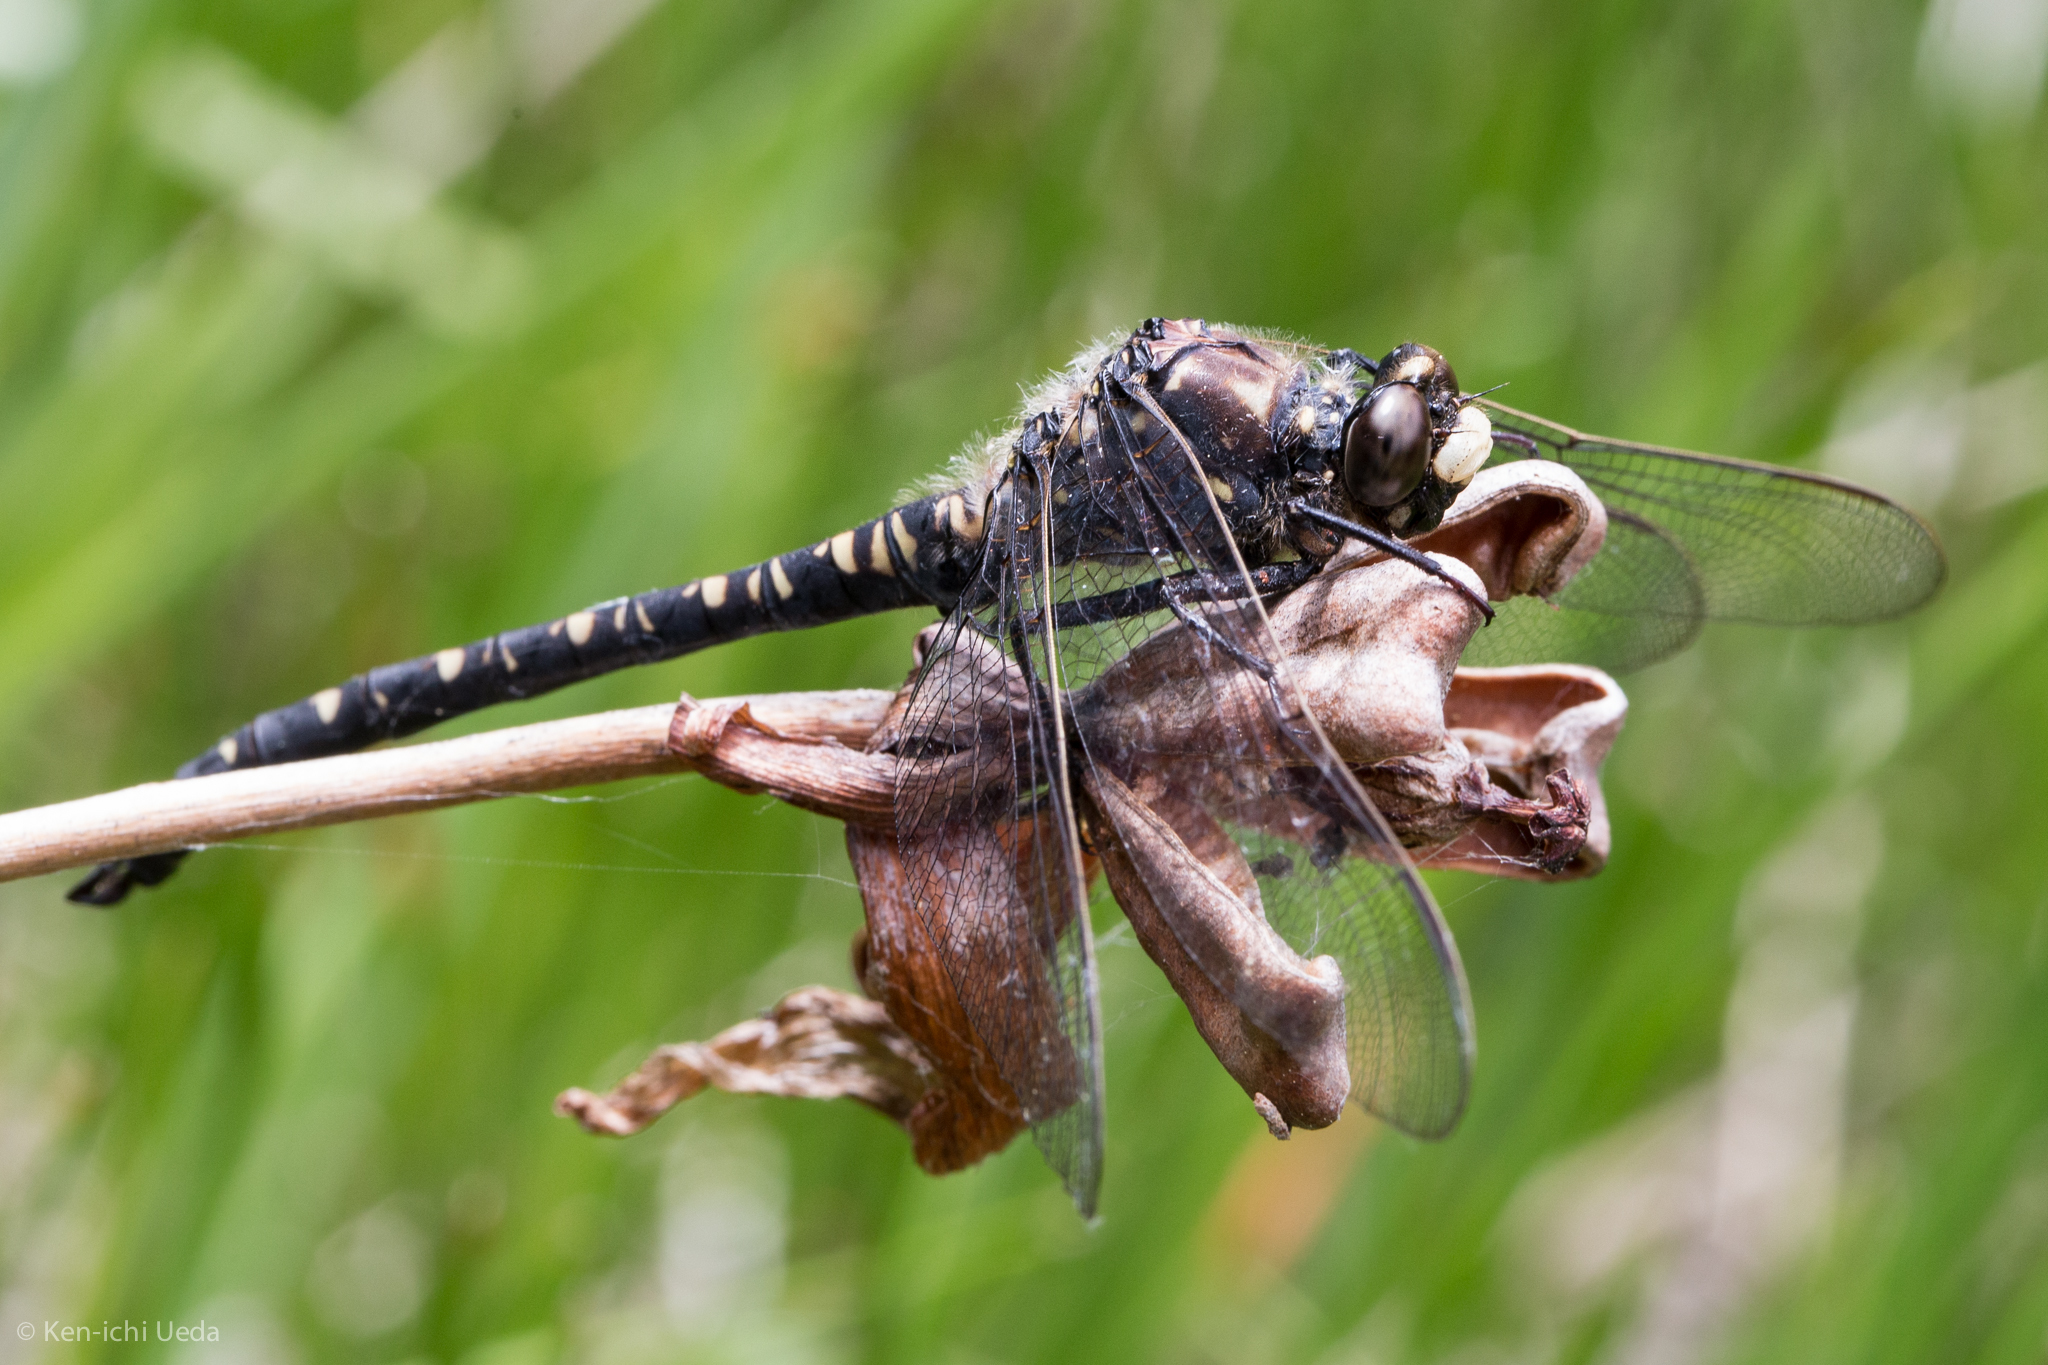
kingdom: Animalia
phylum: Arthropoda
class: Insecta
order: Odonata
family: Petaluridae
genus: Tanypteryx
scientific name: Tanypteryx hageni
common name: Black petaltail
